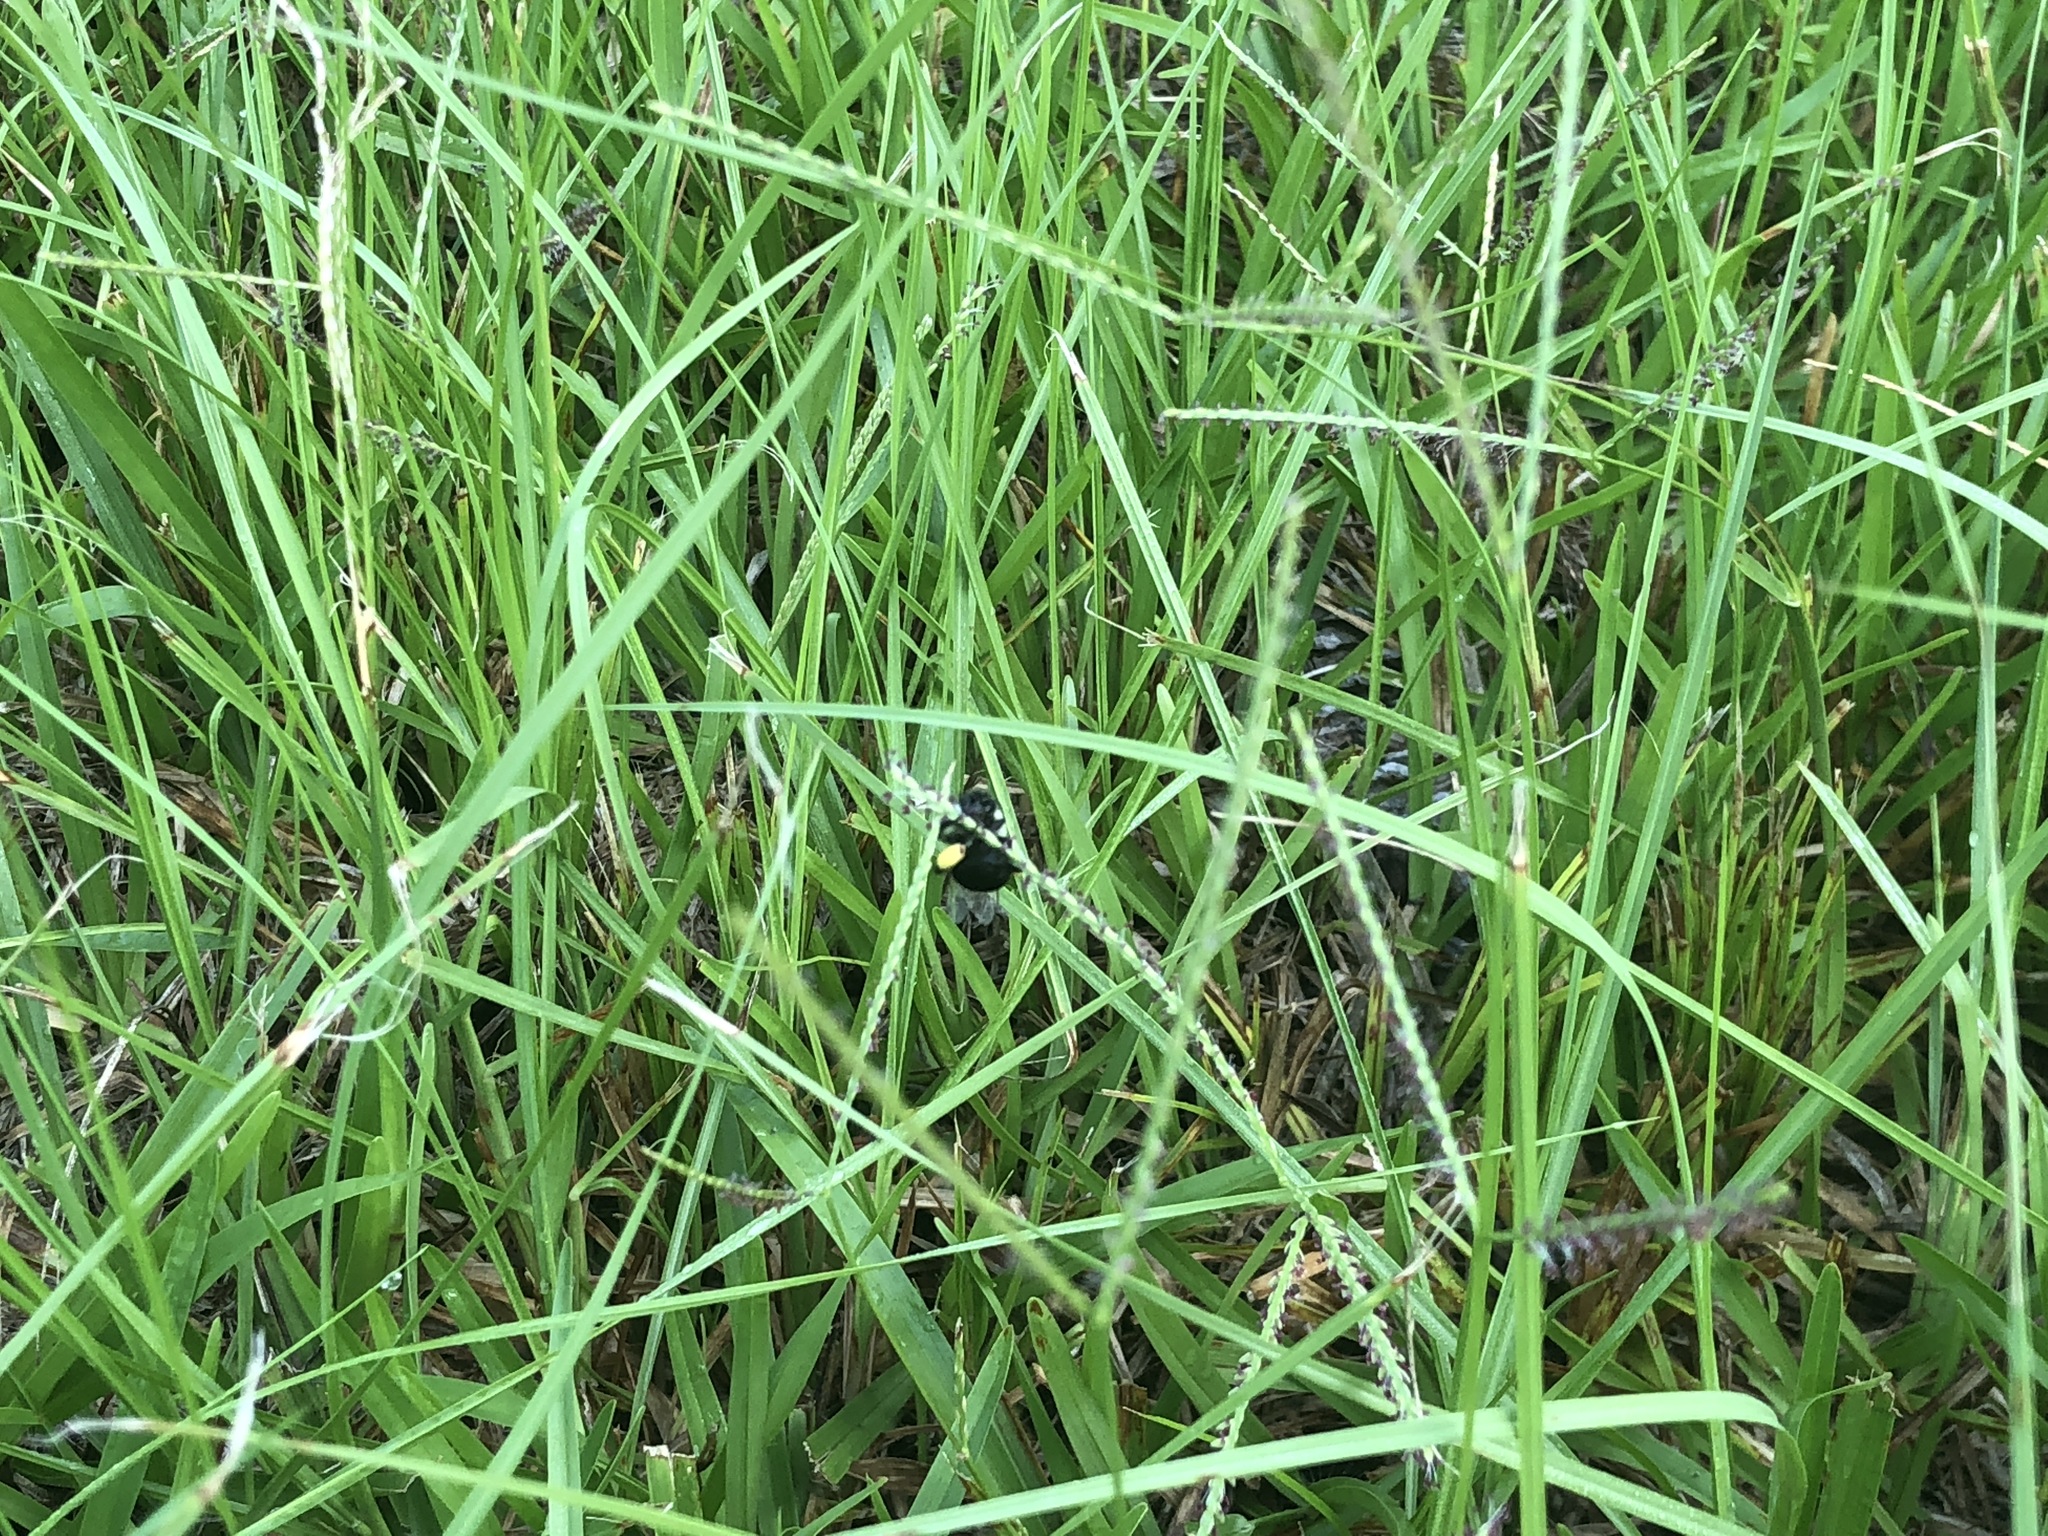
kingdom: Animalia
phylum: Arthropoda
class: Insecta
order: Hymenoptera
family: Apidae
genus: Bombus
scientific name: Bombus impatiens
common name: Common eastern bumble bee
